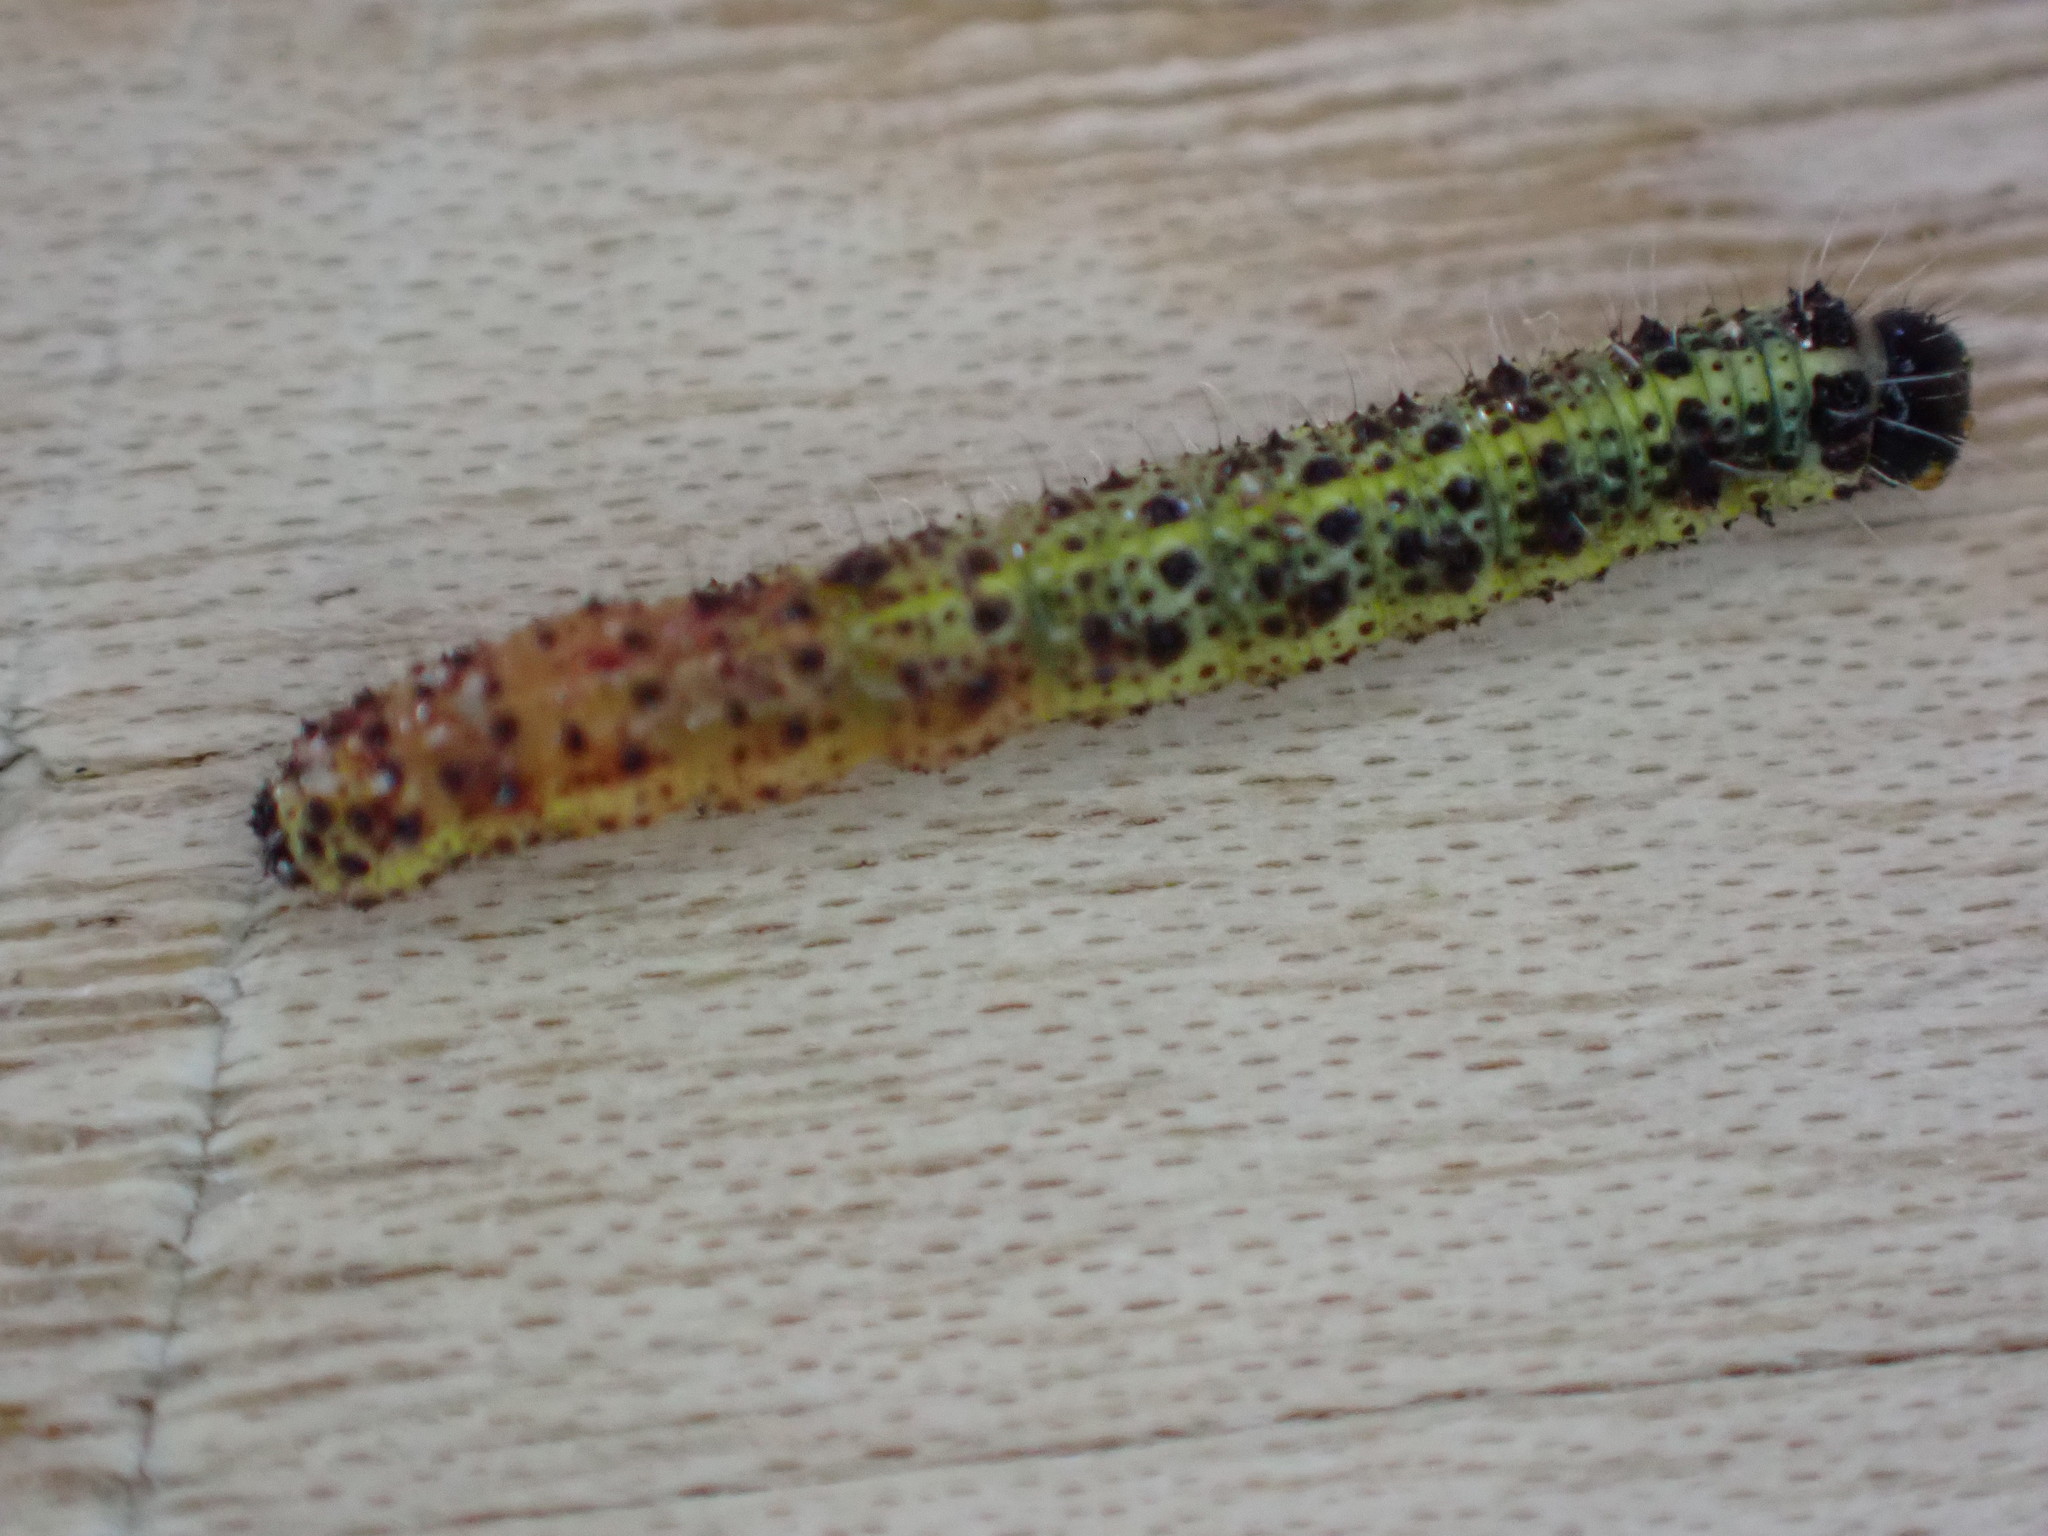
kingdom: Animalia
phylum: Arthropoda
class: Insecta
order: Lepidoptera
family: Pieridae
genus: Pieris
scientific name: Pieris brassicae
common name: Large white
